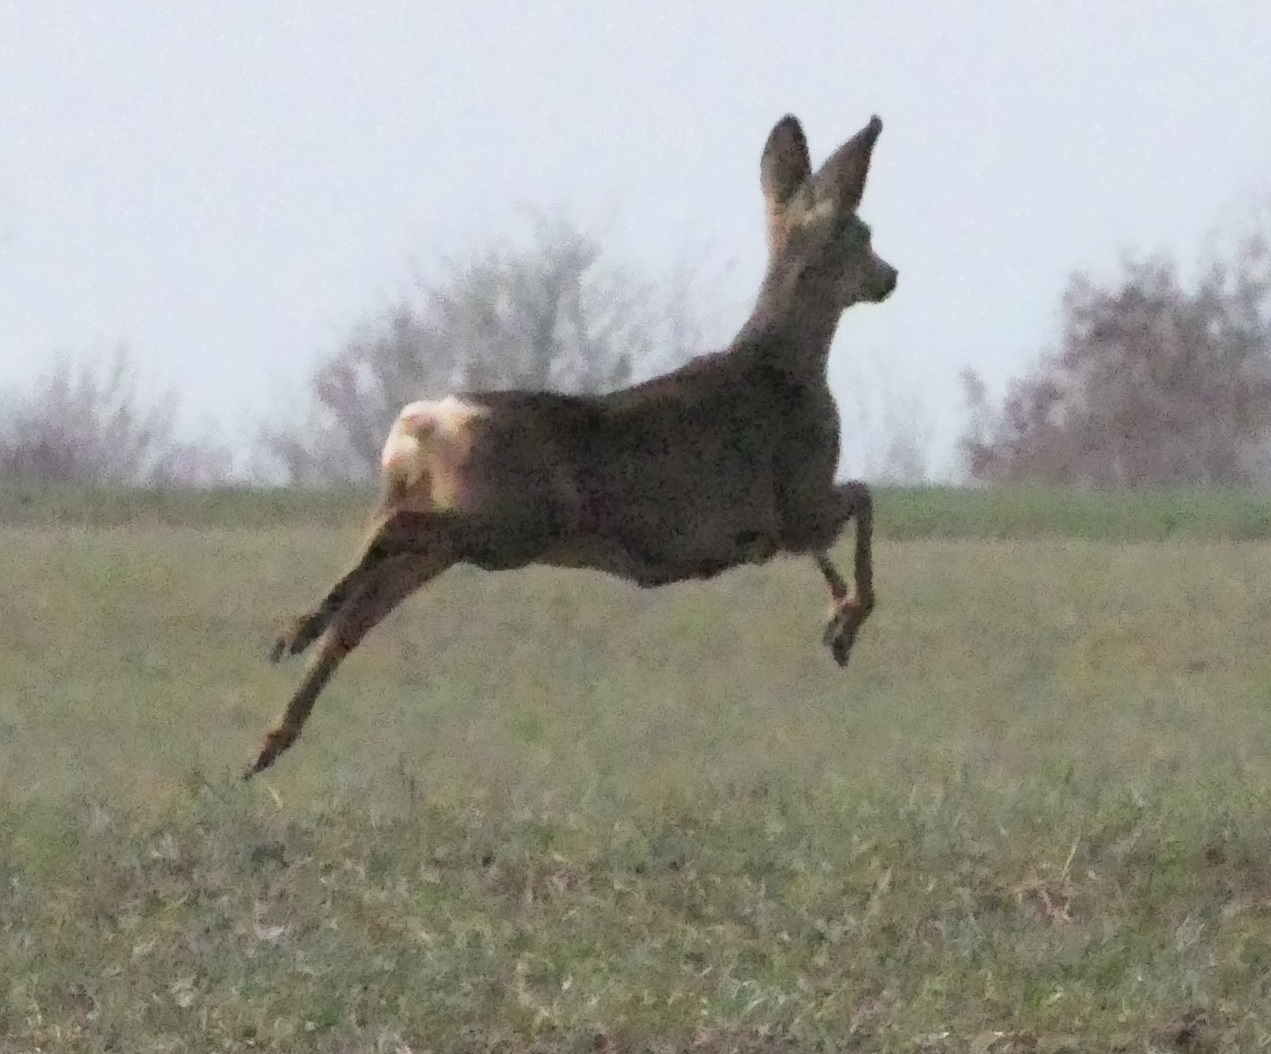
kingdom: Animalia
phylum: Chordata
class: Mammalia
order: Artiodactyla
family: Cervidae
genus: Capreolus
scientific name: Capreolus capreolus
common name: Western roe deer
